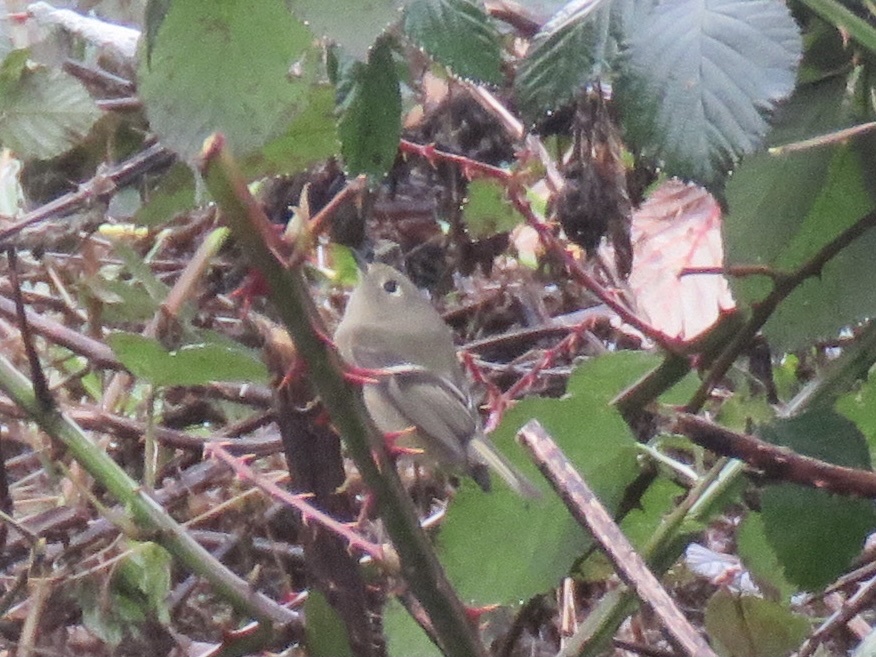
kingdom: Animalia
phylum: Chordata
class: Aves
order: Passeriformes
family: Regulidae
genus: Regulus
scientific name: Regulus calendula
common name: Ruby-crowned kinglet
